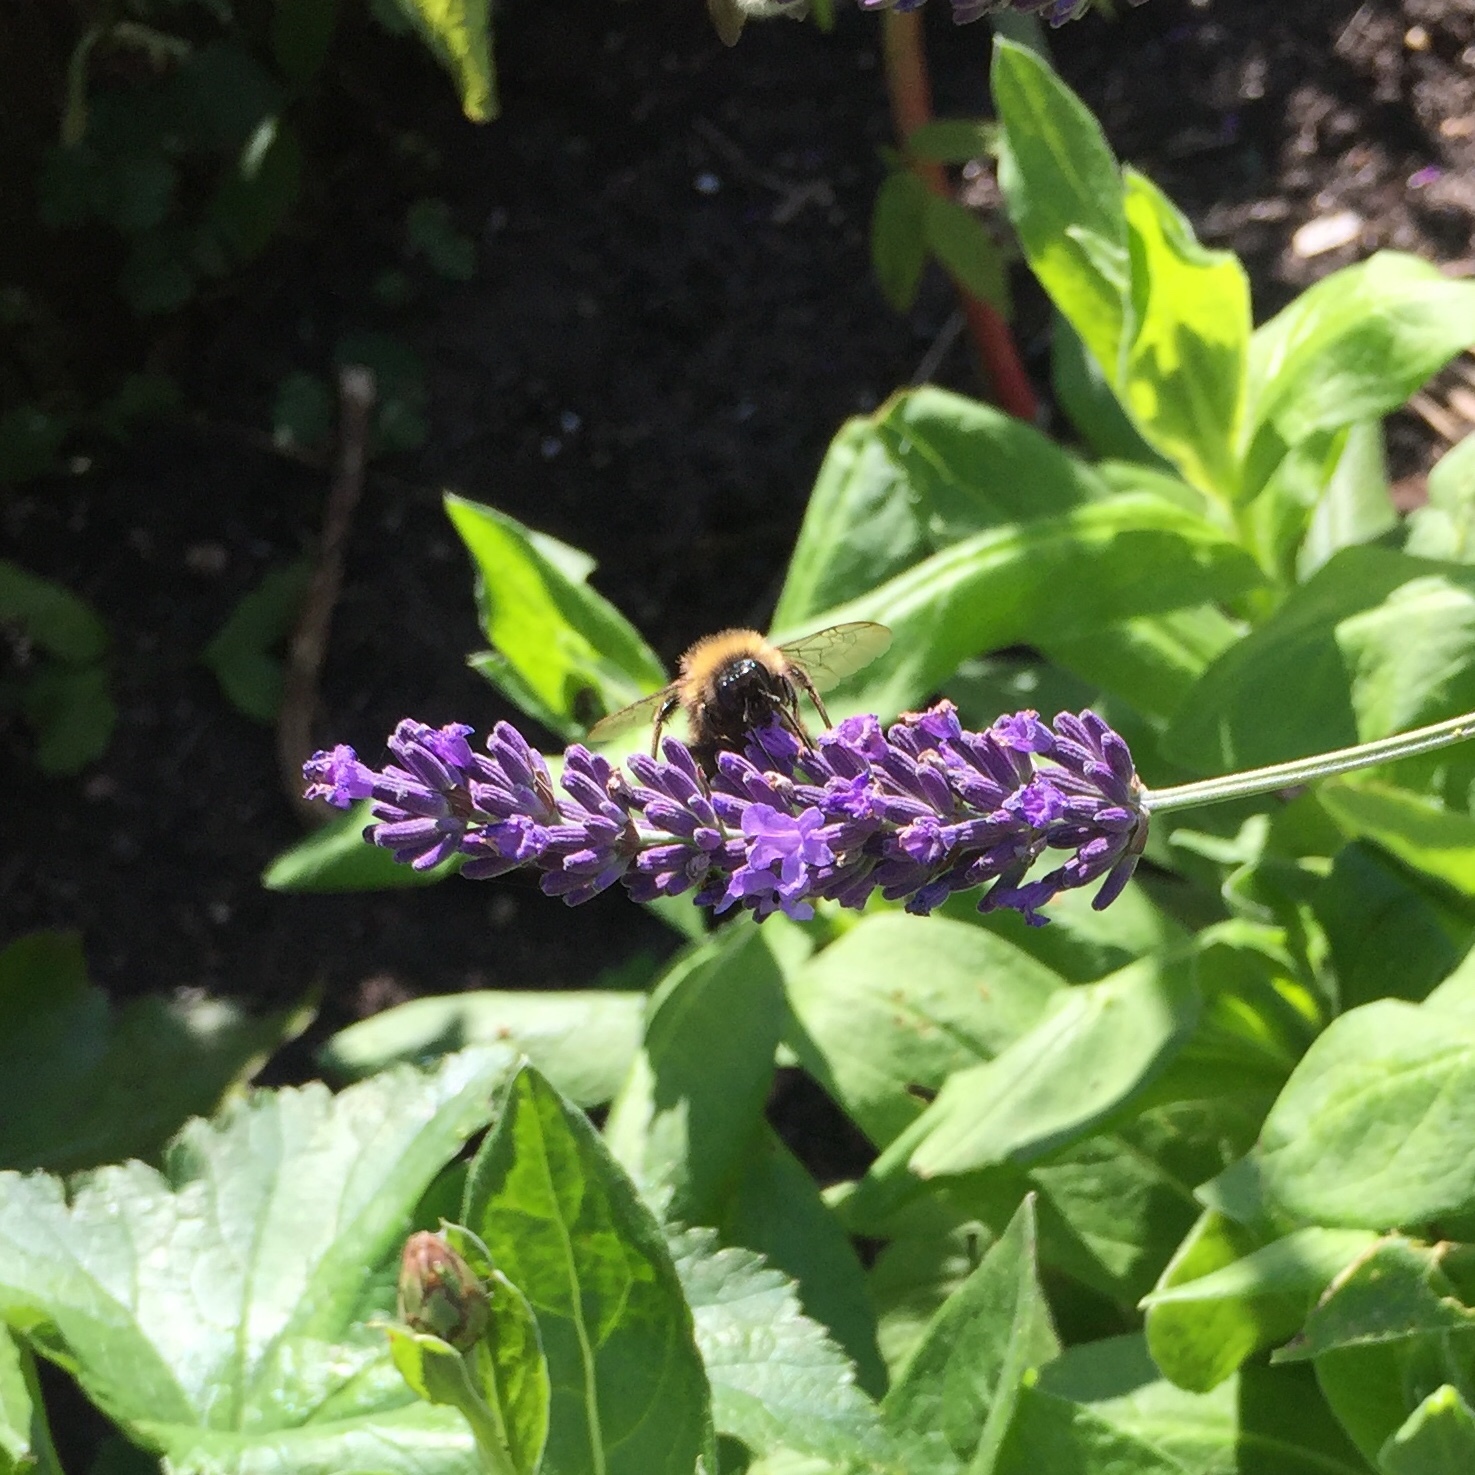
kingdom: Animalia
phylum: Arthropoda
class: Insecta
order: Hymenoptera
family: Apidae
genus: Bombus
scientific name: Bombus pascuorum
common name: Common carder bee
